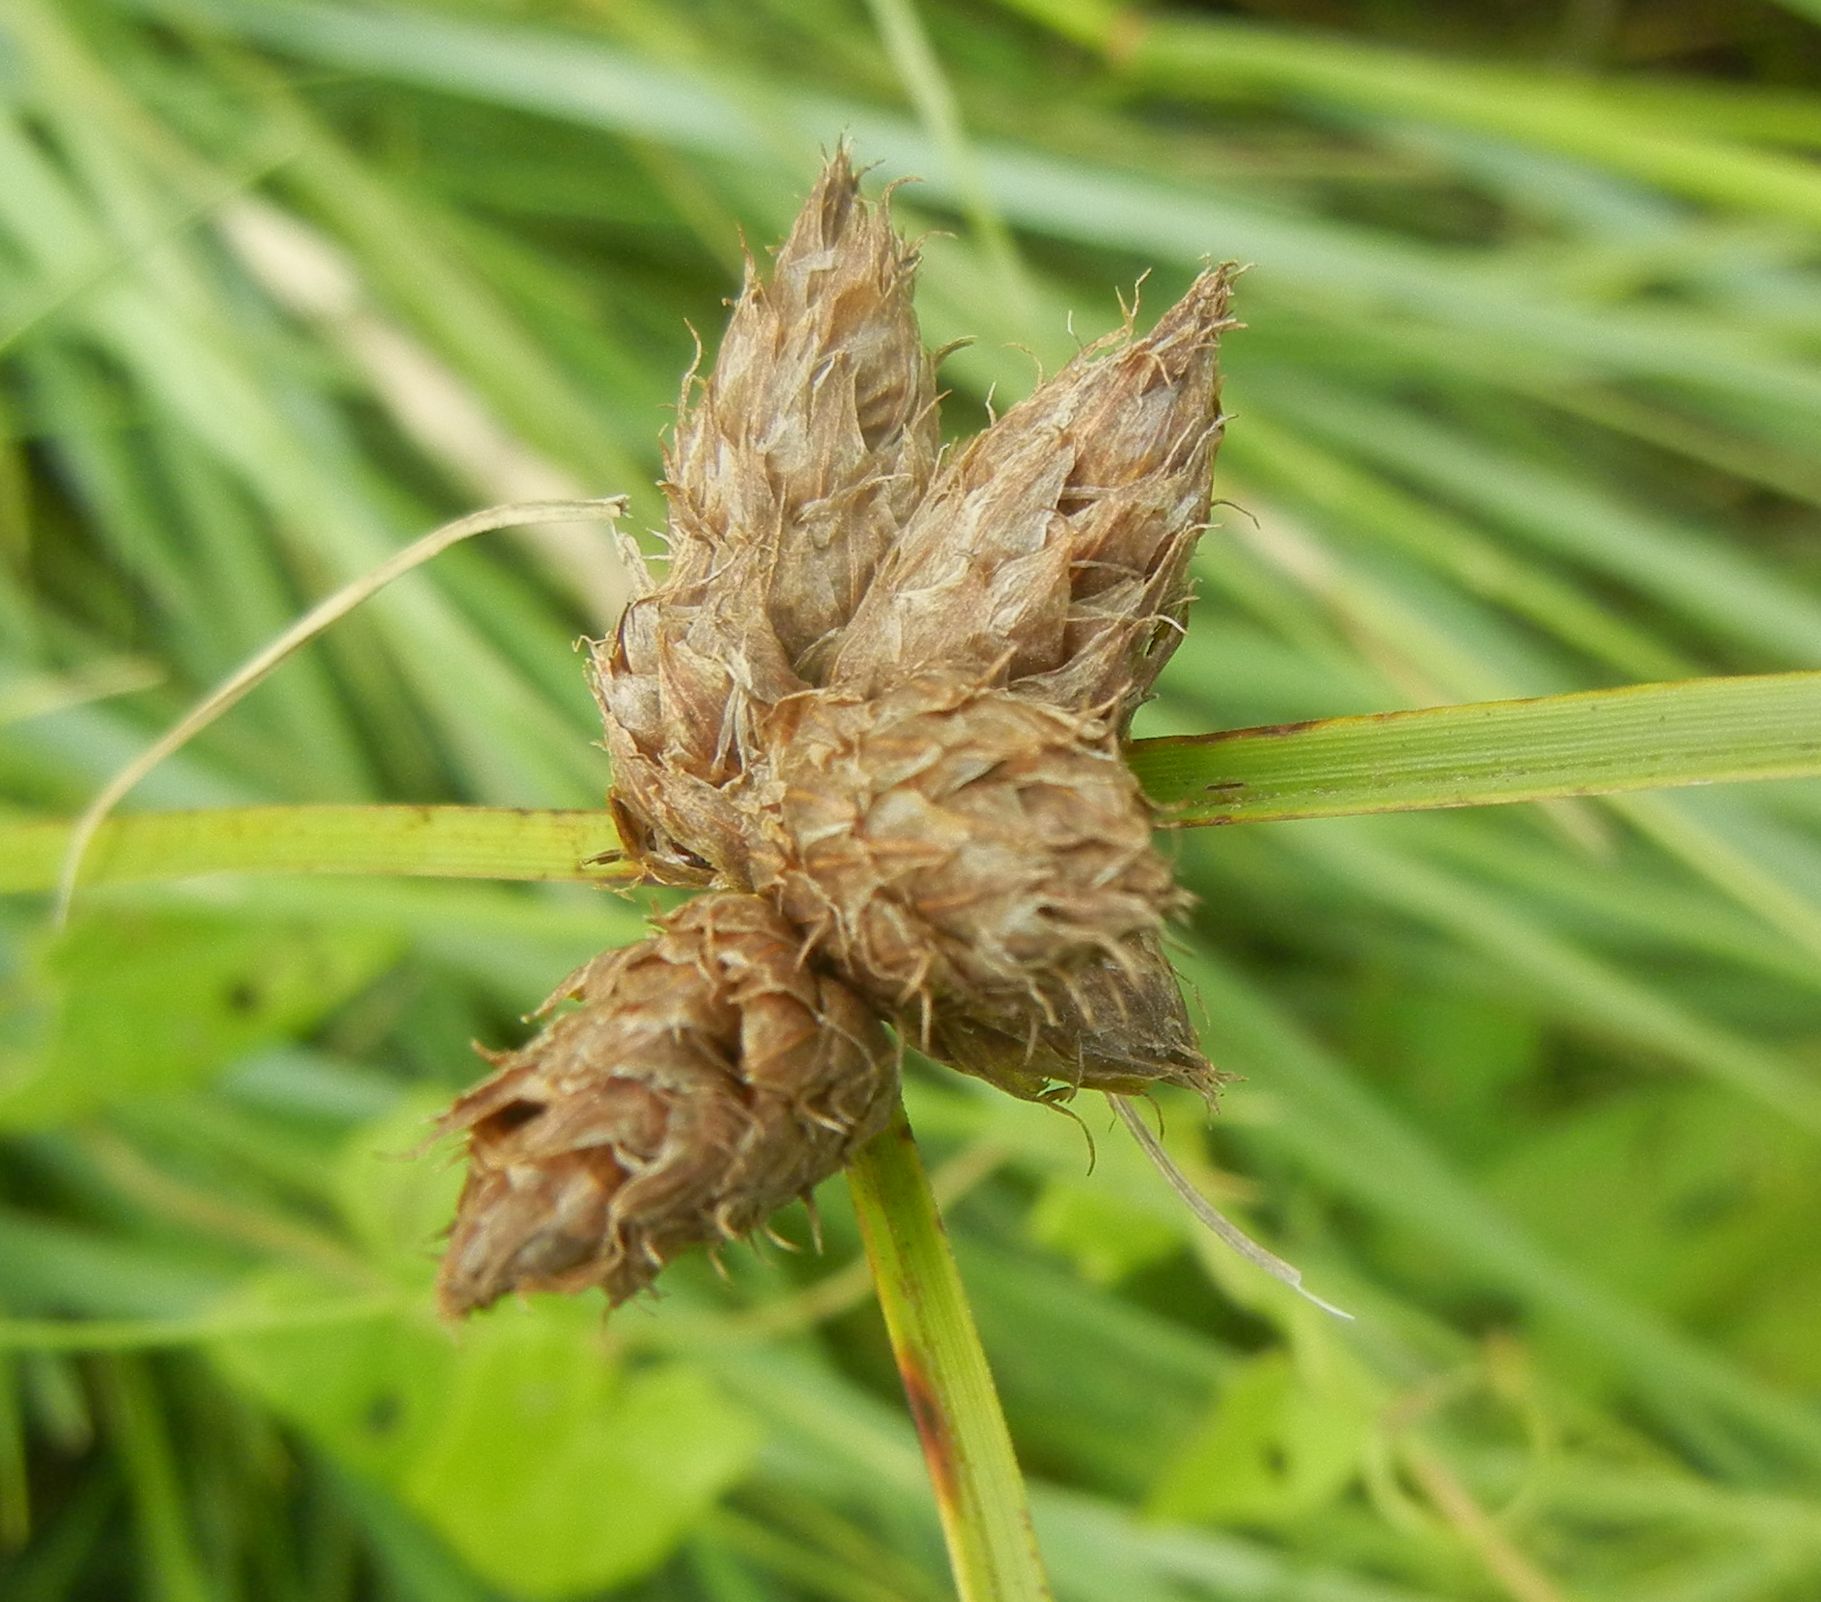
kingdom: Plantae
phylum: Tracheophyta
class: Liliopsida
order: Poales
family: Cyperaceae
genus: Bolboschoenus
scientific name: Bolboschoenus maritimus
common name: Sea club-rush
